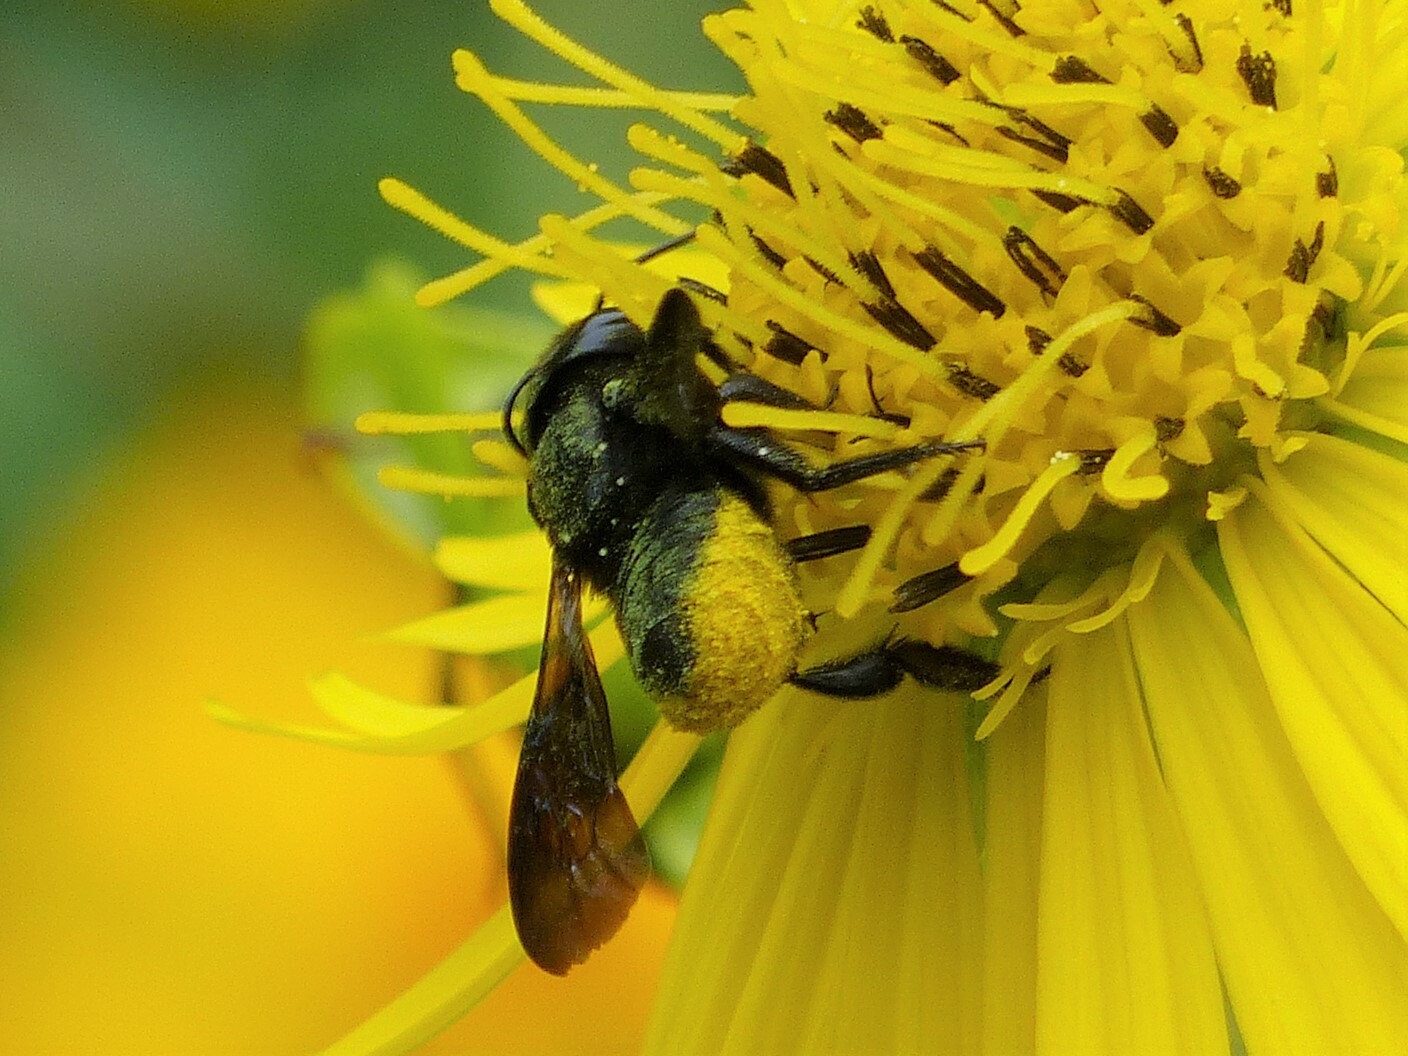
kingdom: Animalia
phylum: Arthropoda
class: Insecta
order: Hymenoptera
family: Megachilidae
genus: Megachile
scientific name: Megachile xylocopoides
